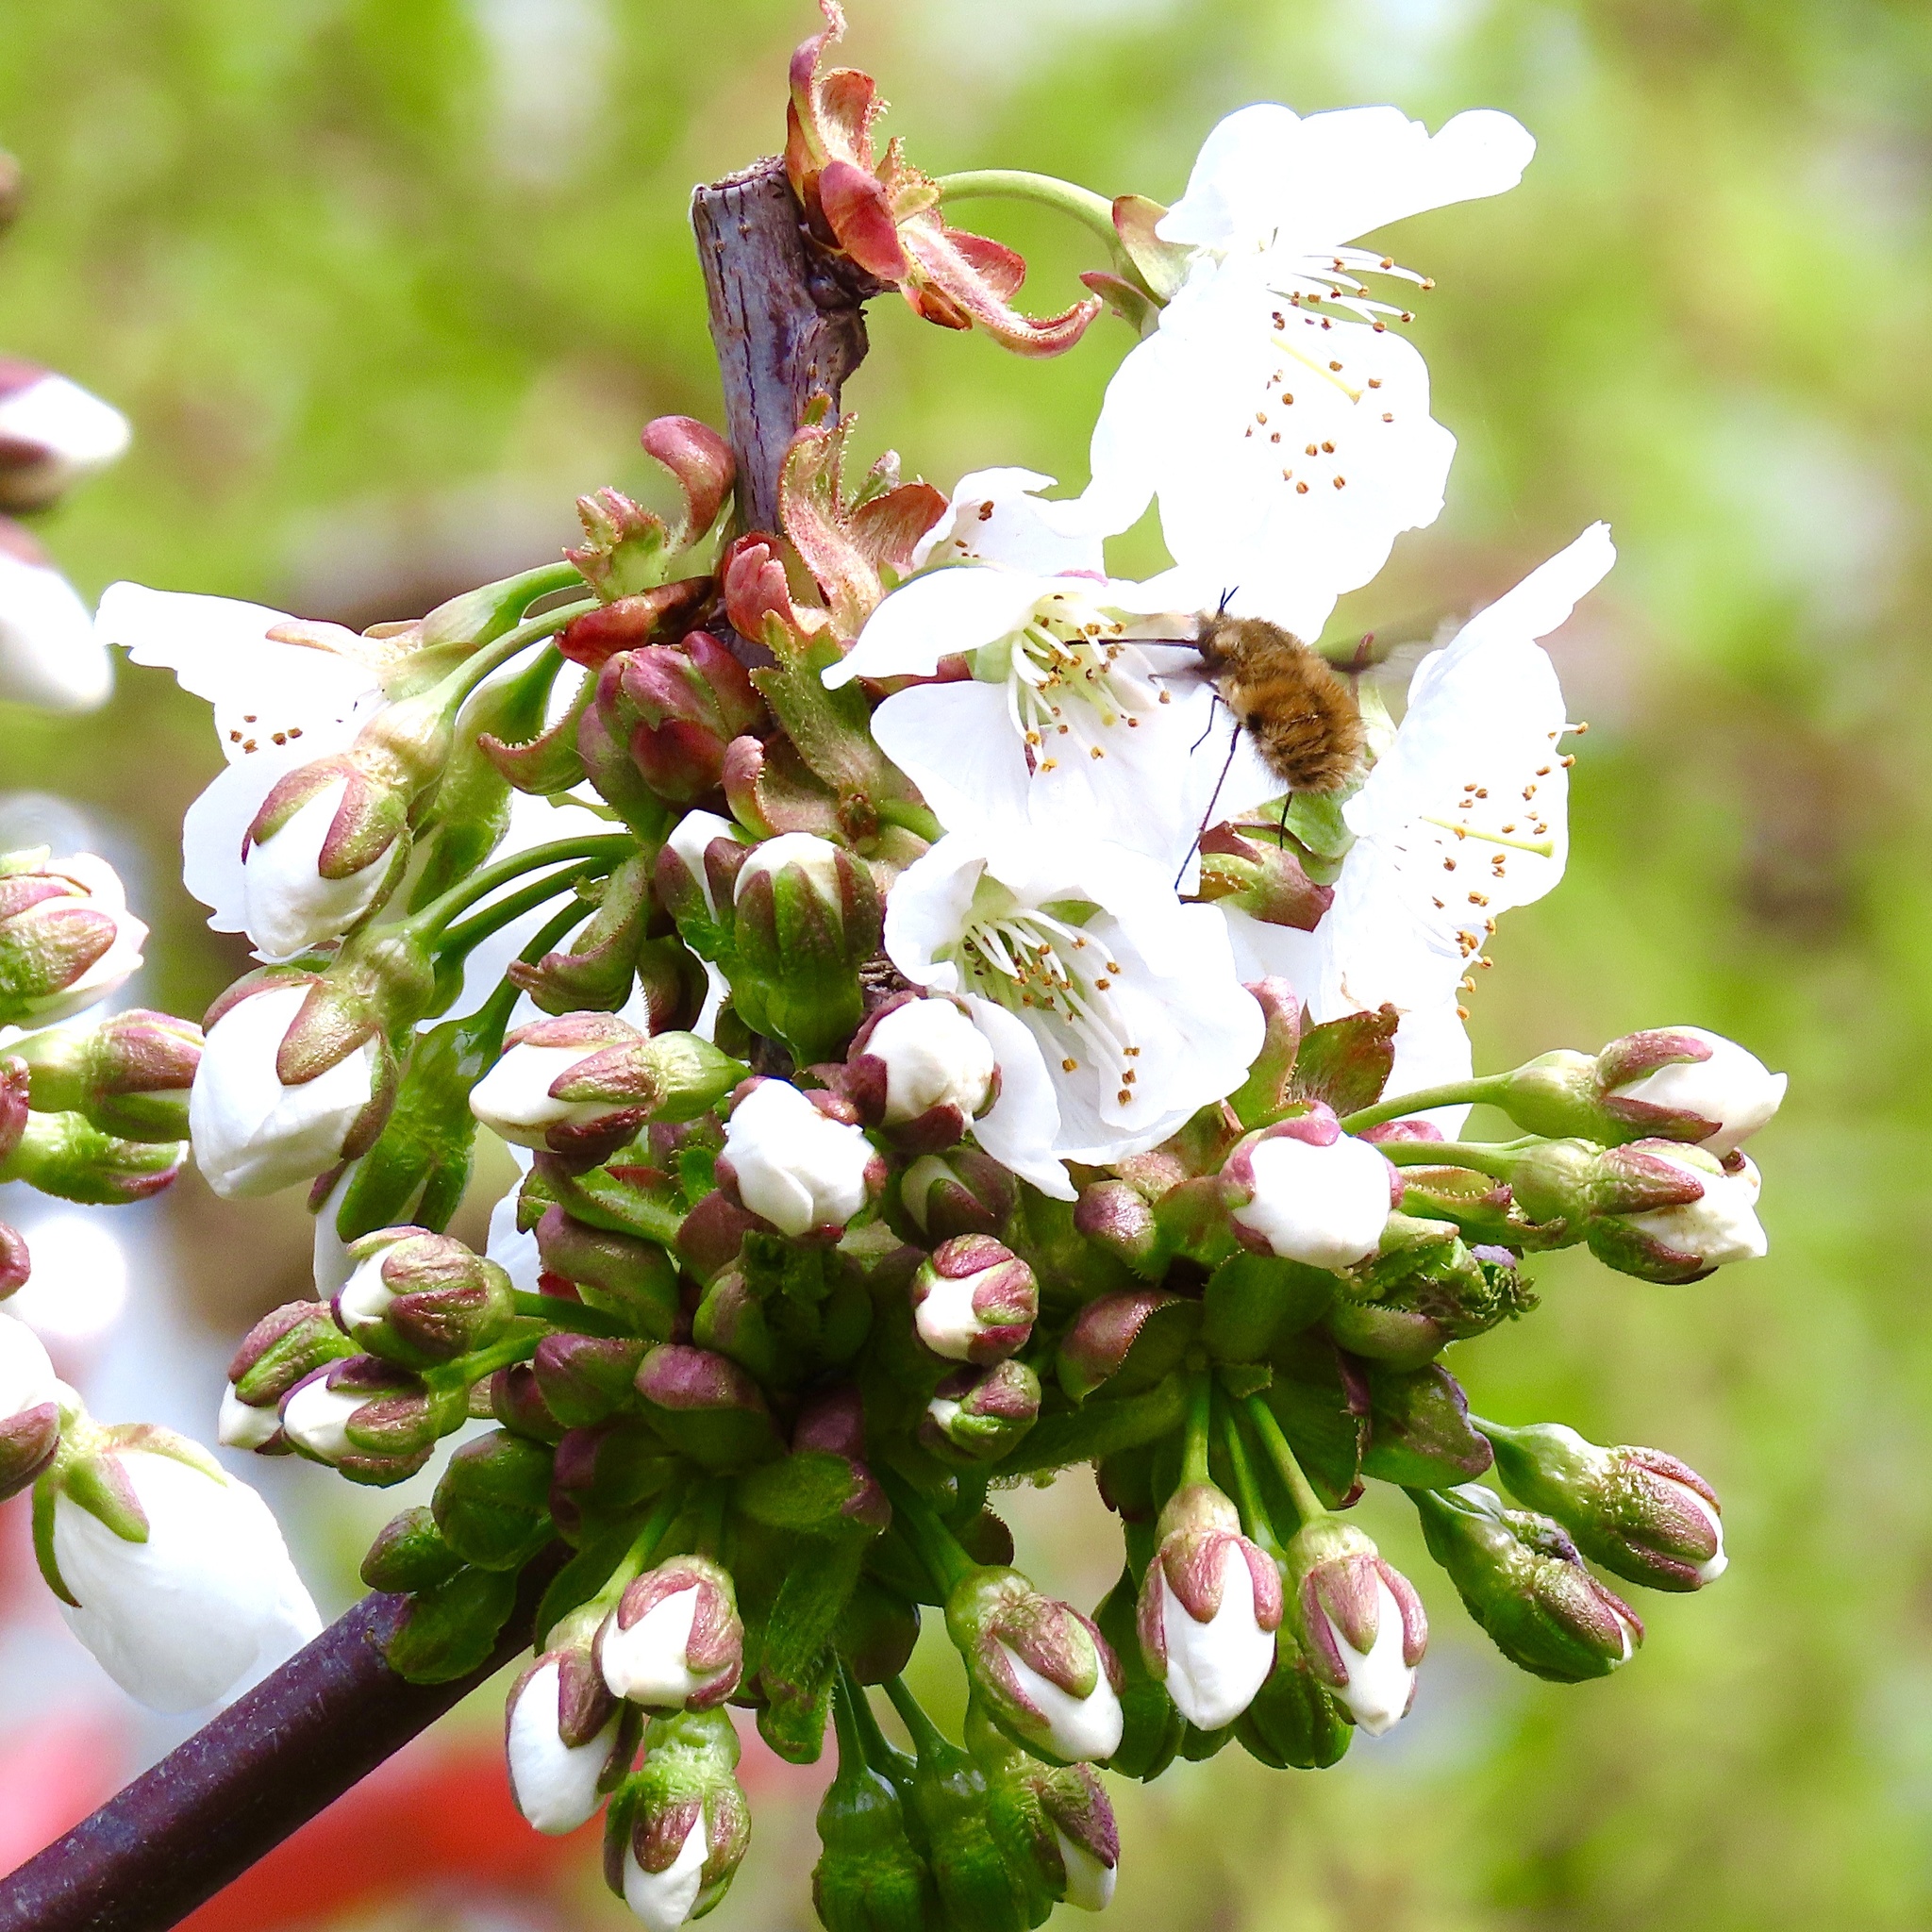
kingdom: Animalia
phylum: Arthropoda
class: Insecta
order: Diptera
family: Bombyliidae
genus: Bombylius
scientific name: Bombylius major
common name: Bee fly
